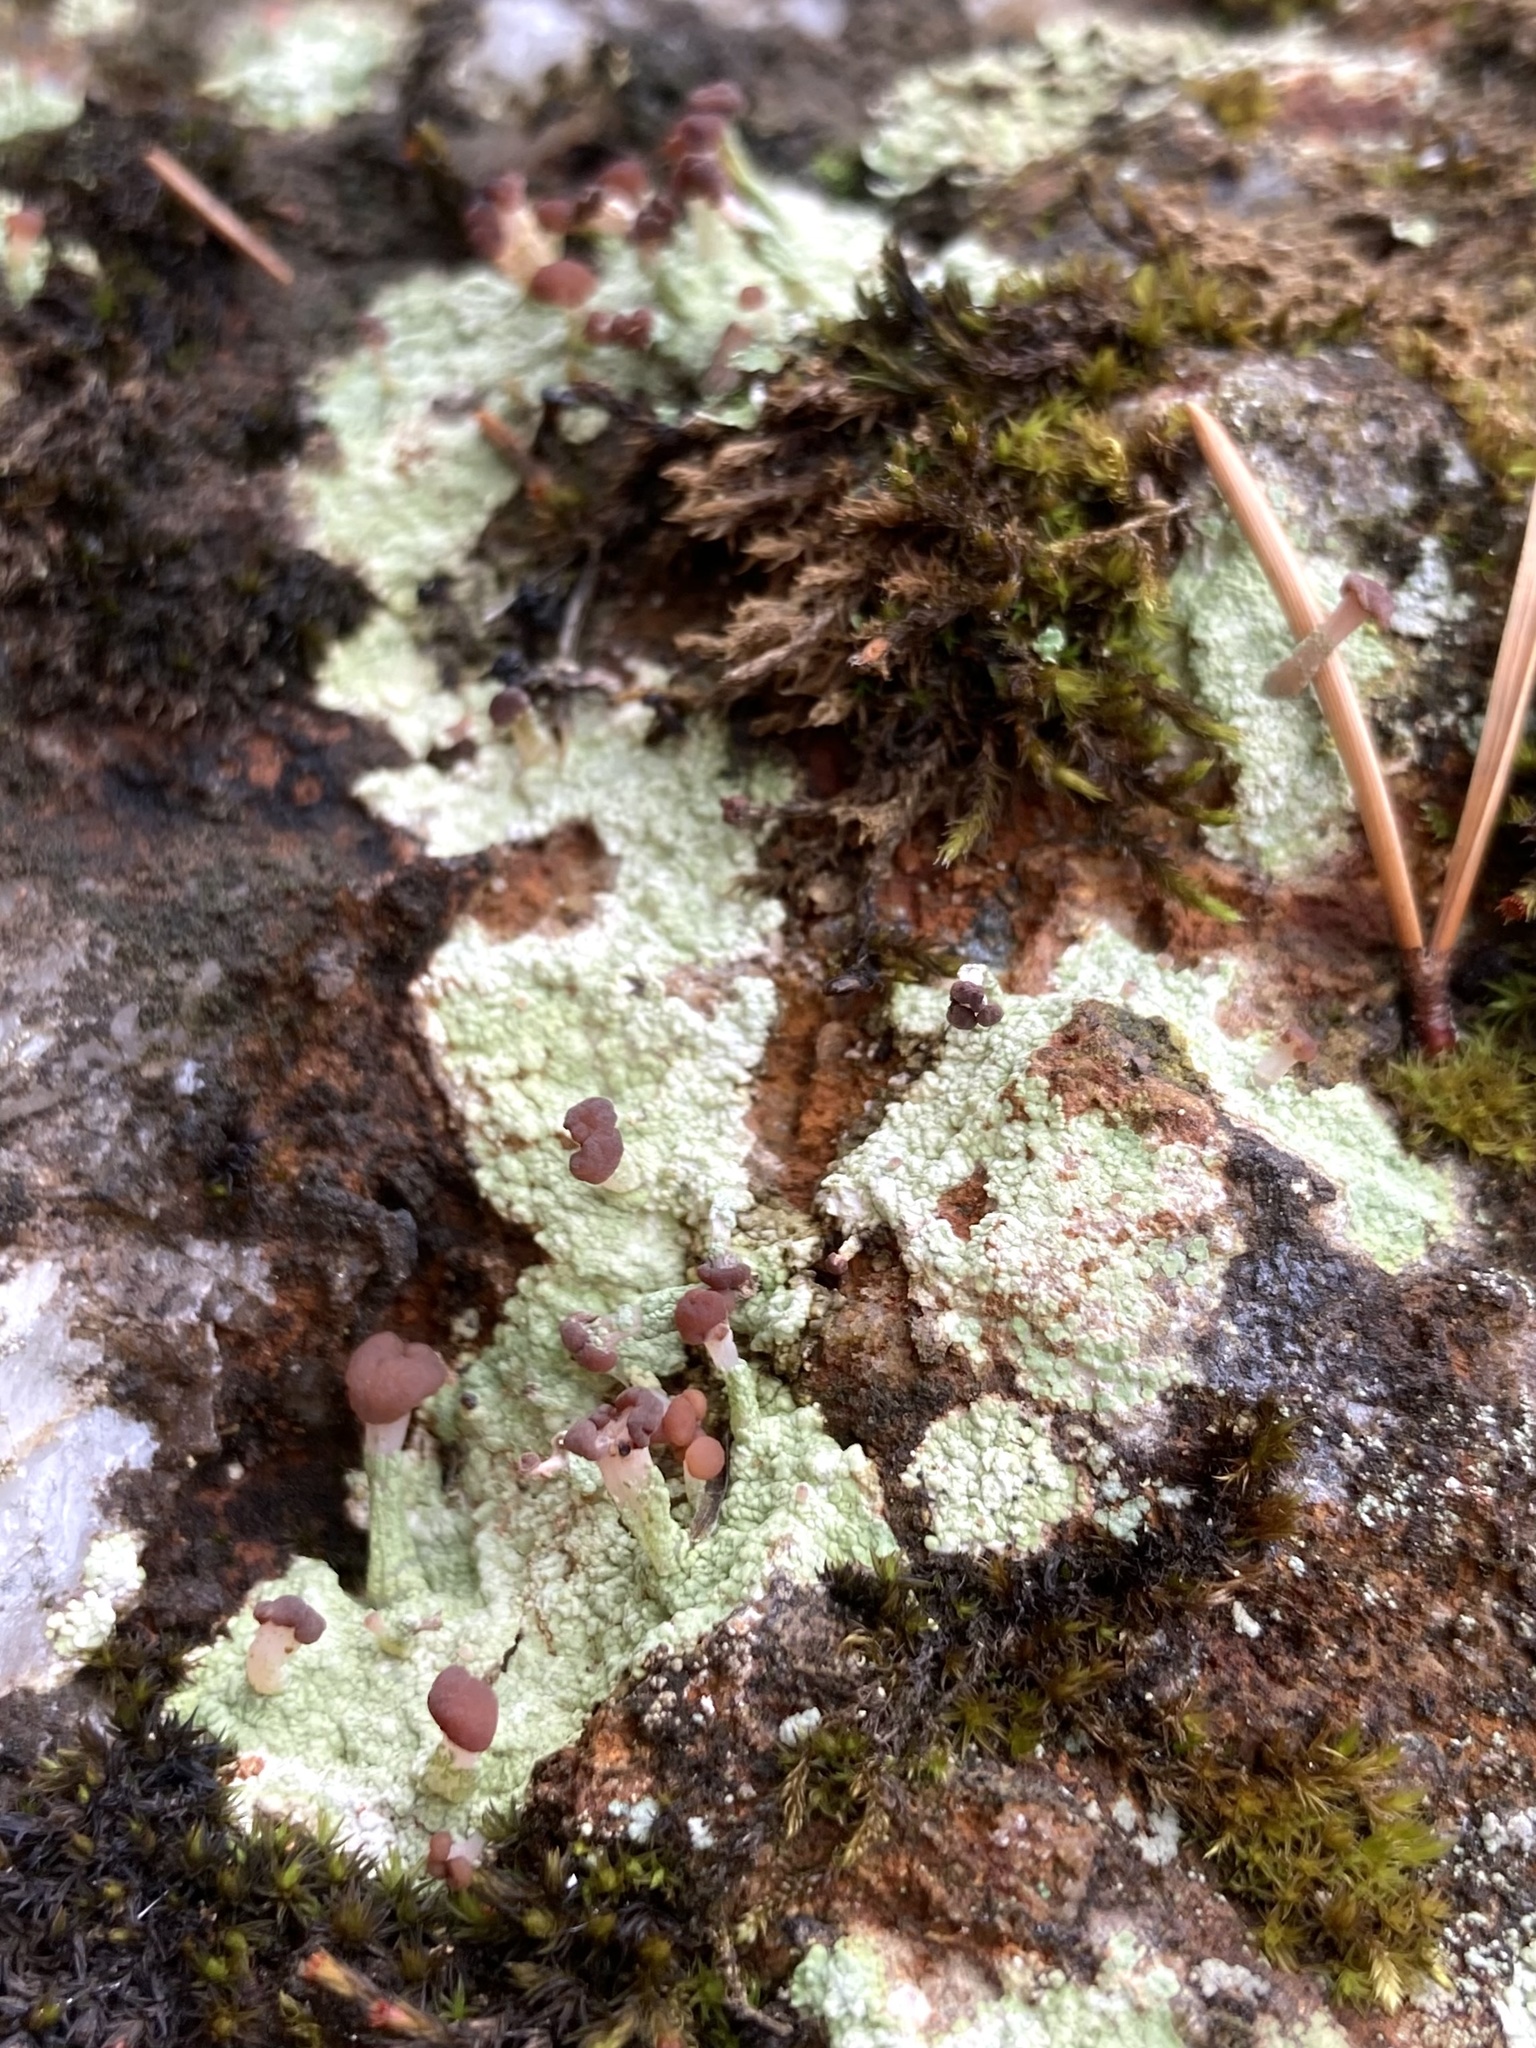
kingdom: Fungi
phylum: Ascomycota
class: Lecanoromycetes
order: Baeomycetales
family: Baeomycetaceae
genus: Baeomyces
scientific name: Baeomyces rufus
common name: Brown beret lichen
